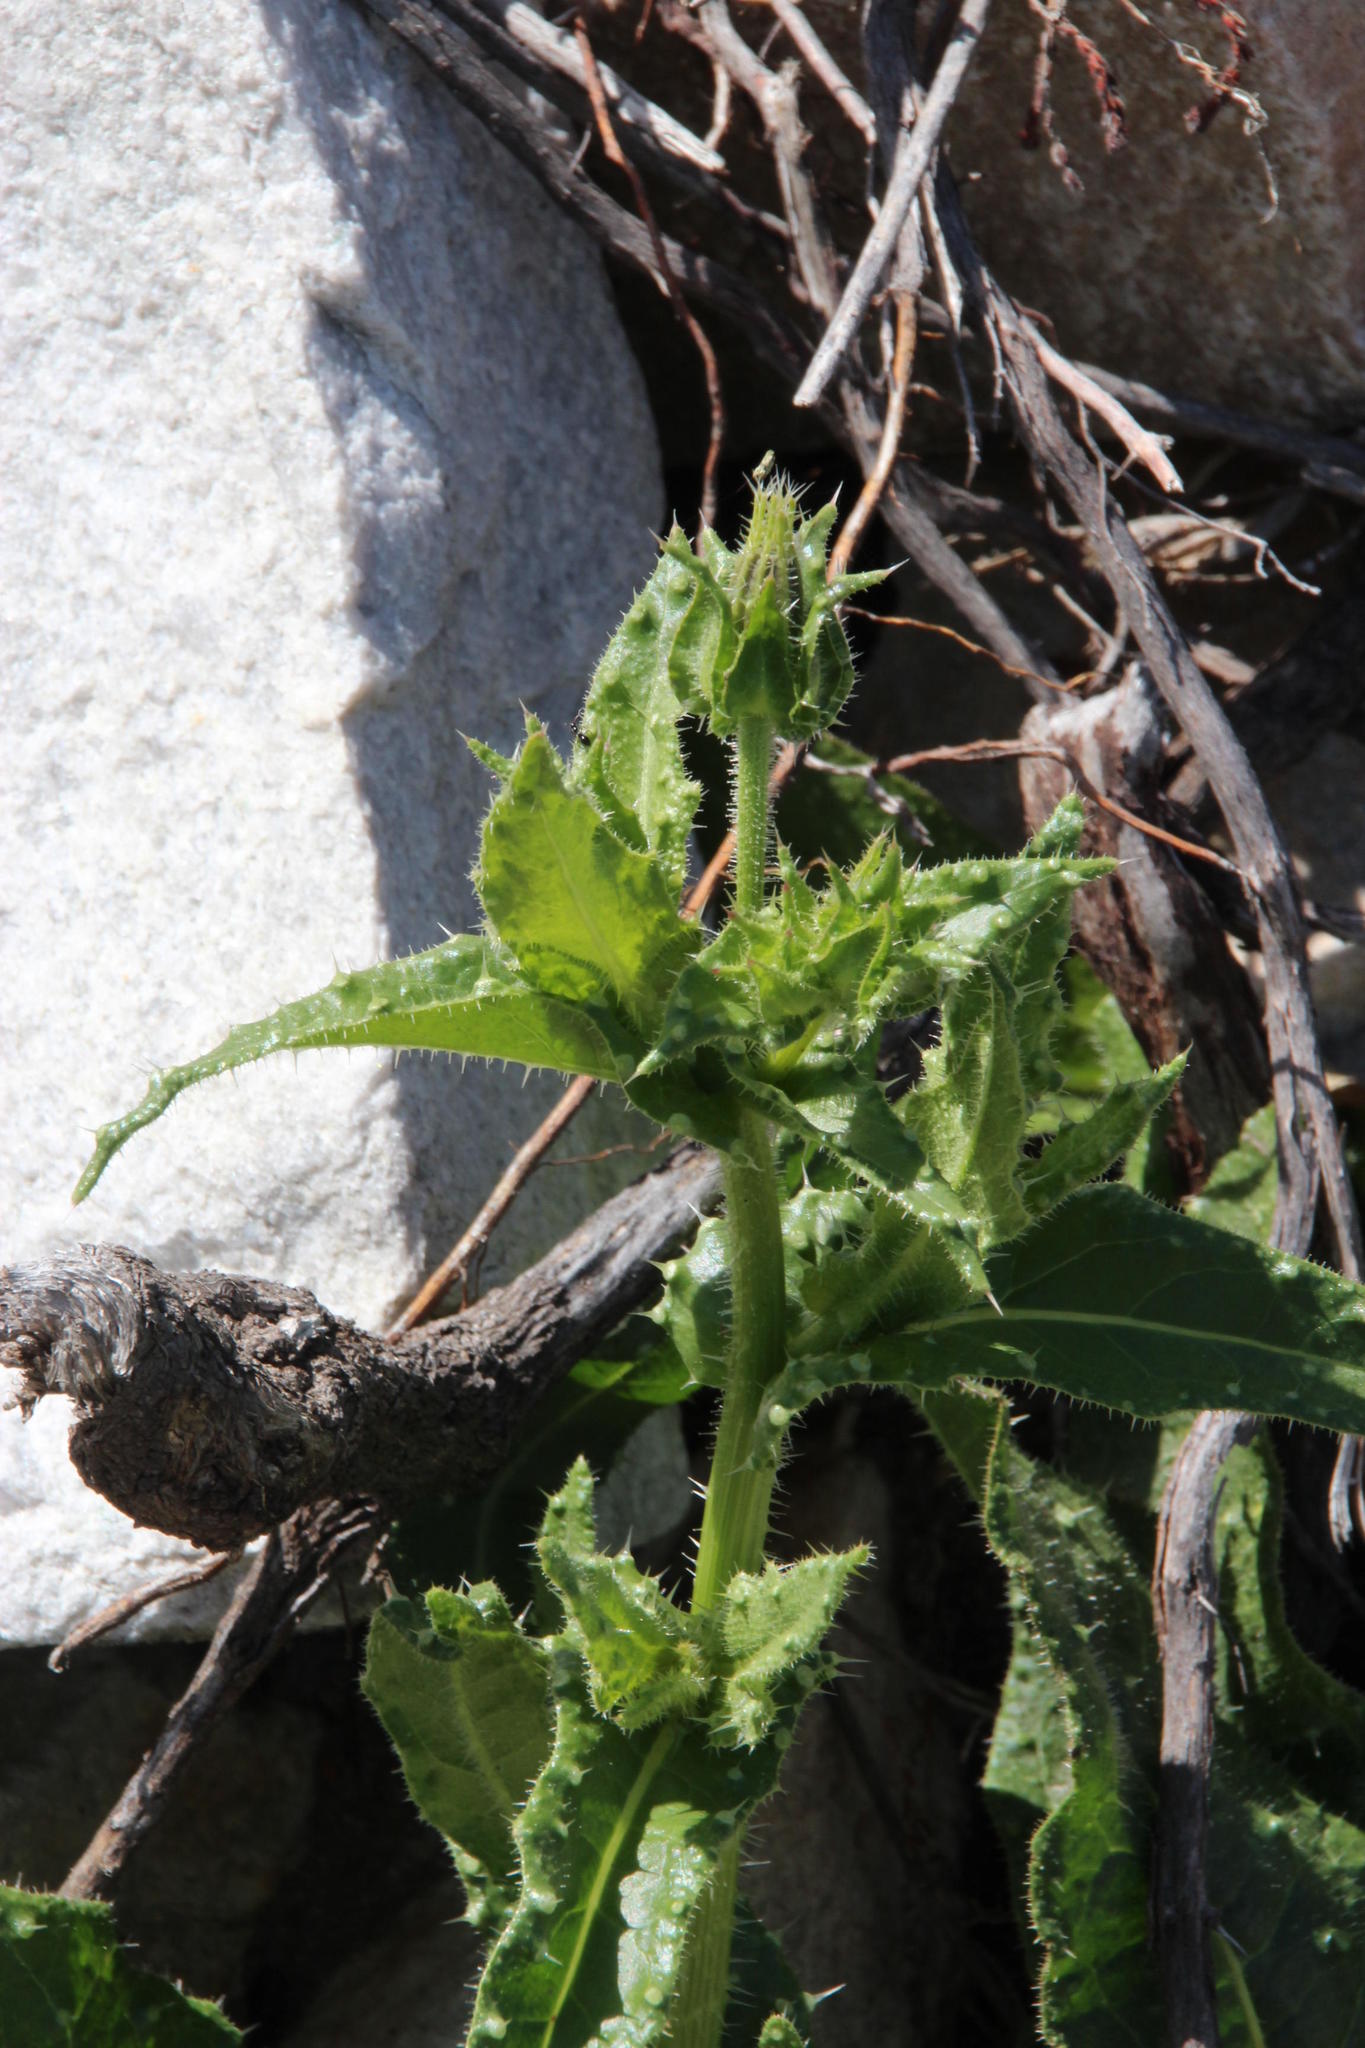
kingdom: Plantae
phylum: Tracheophyta
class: Magnoliopsida
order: Asterales
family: Asteraceae
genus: Helminthotheca
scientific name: Helminthotheca echioides
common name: Ox-tongue
